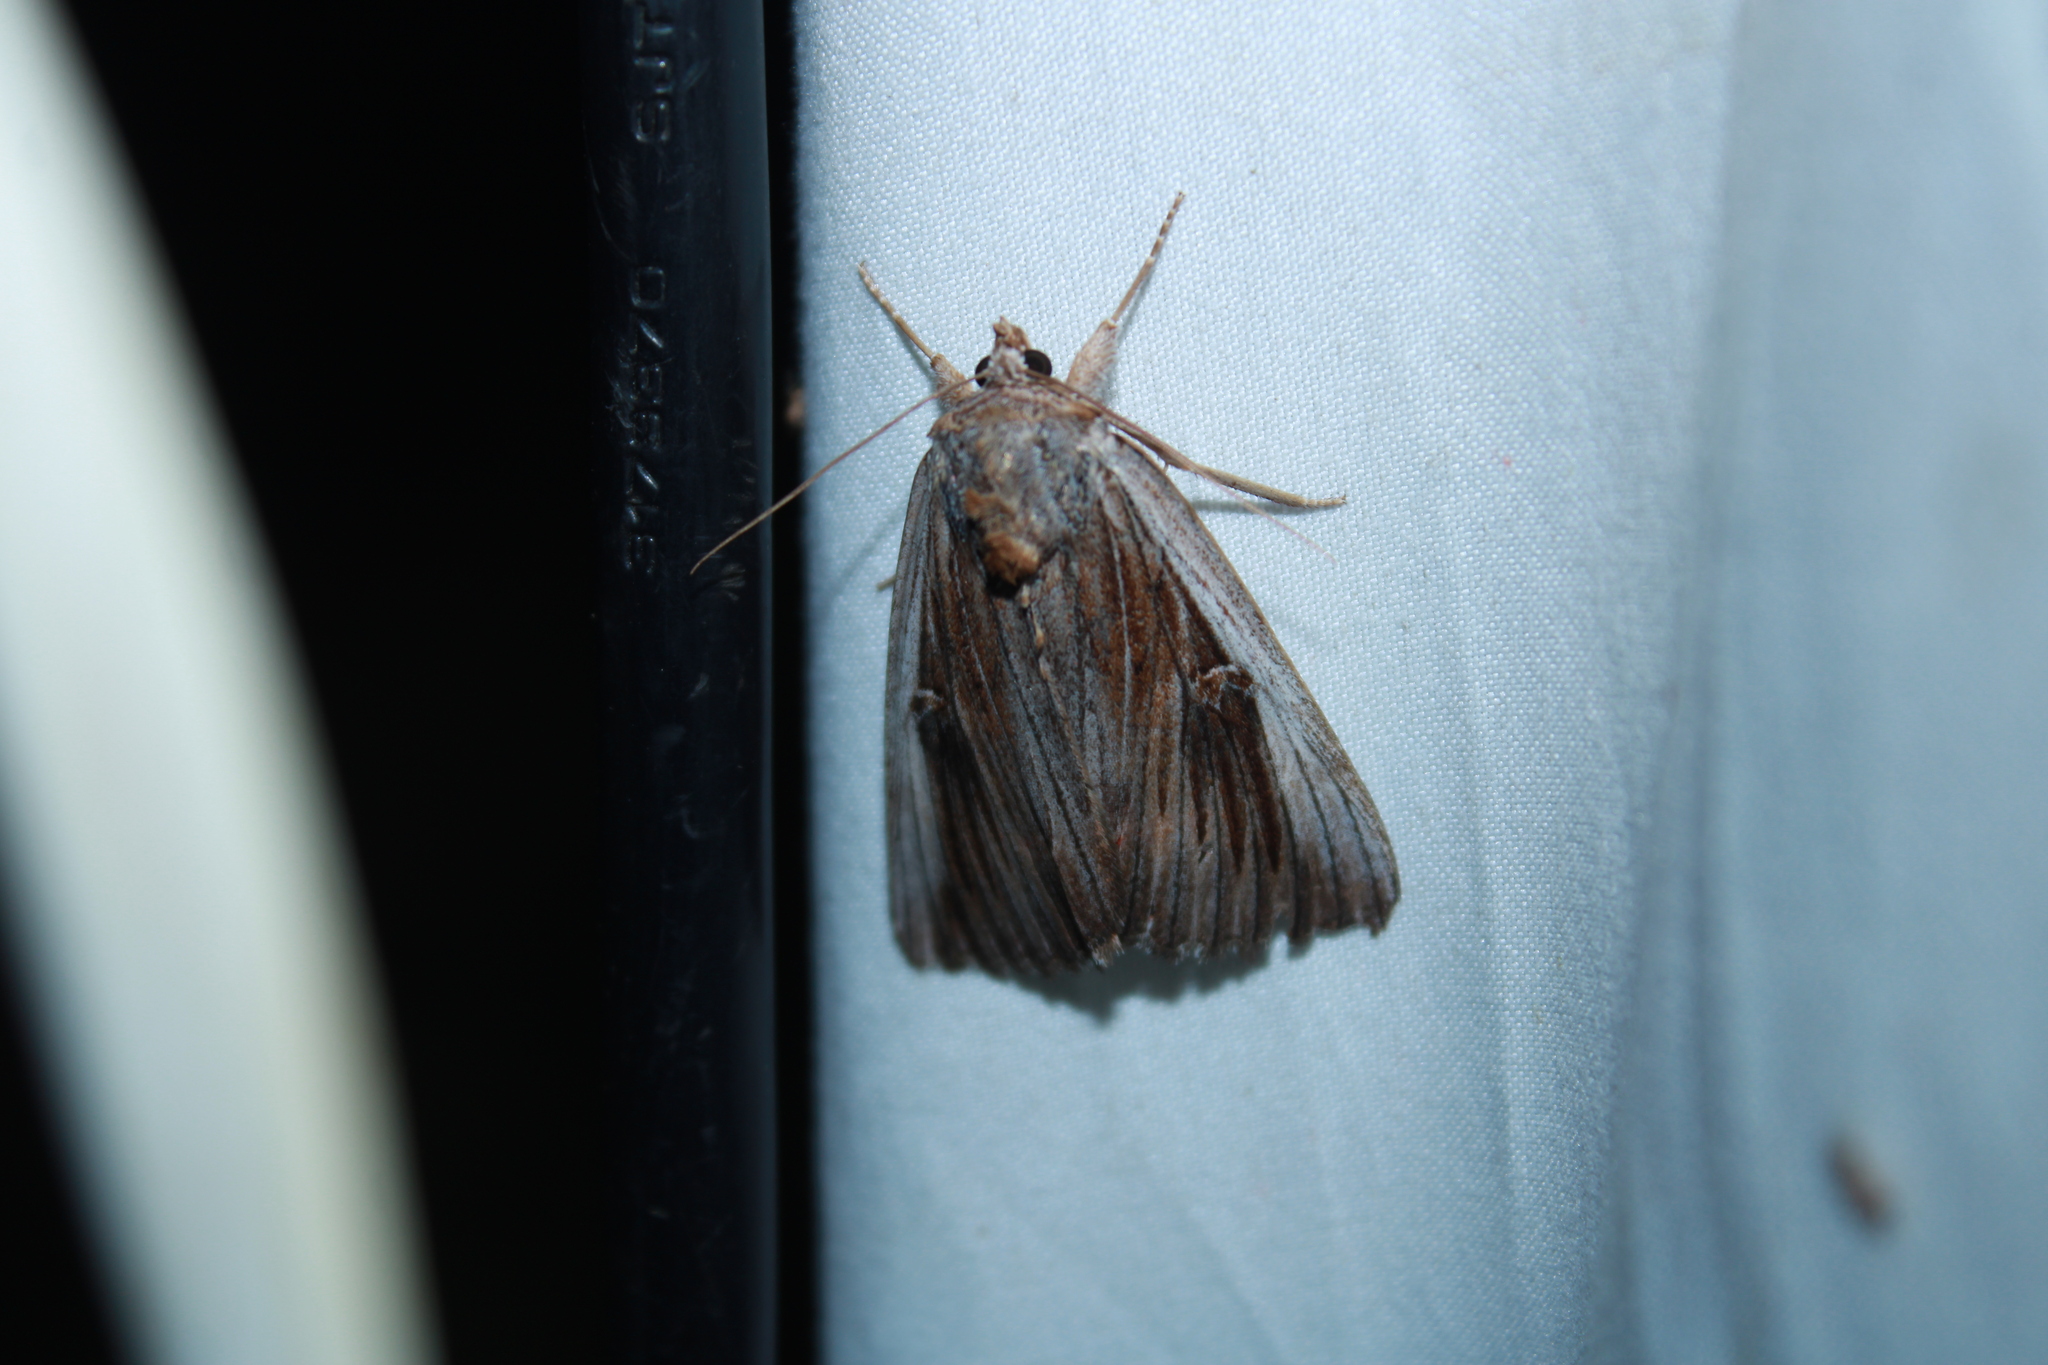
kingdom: Animalia
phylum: Arthropoda
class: Insecta
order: Lepidoptera
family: Erebidae
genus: Catocala
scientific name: Catocala herodias
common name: Pine barrens underwing
